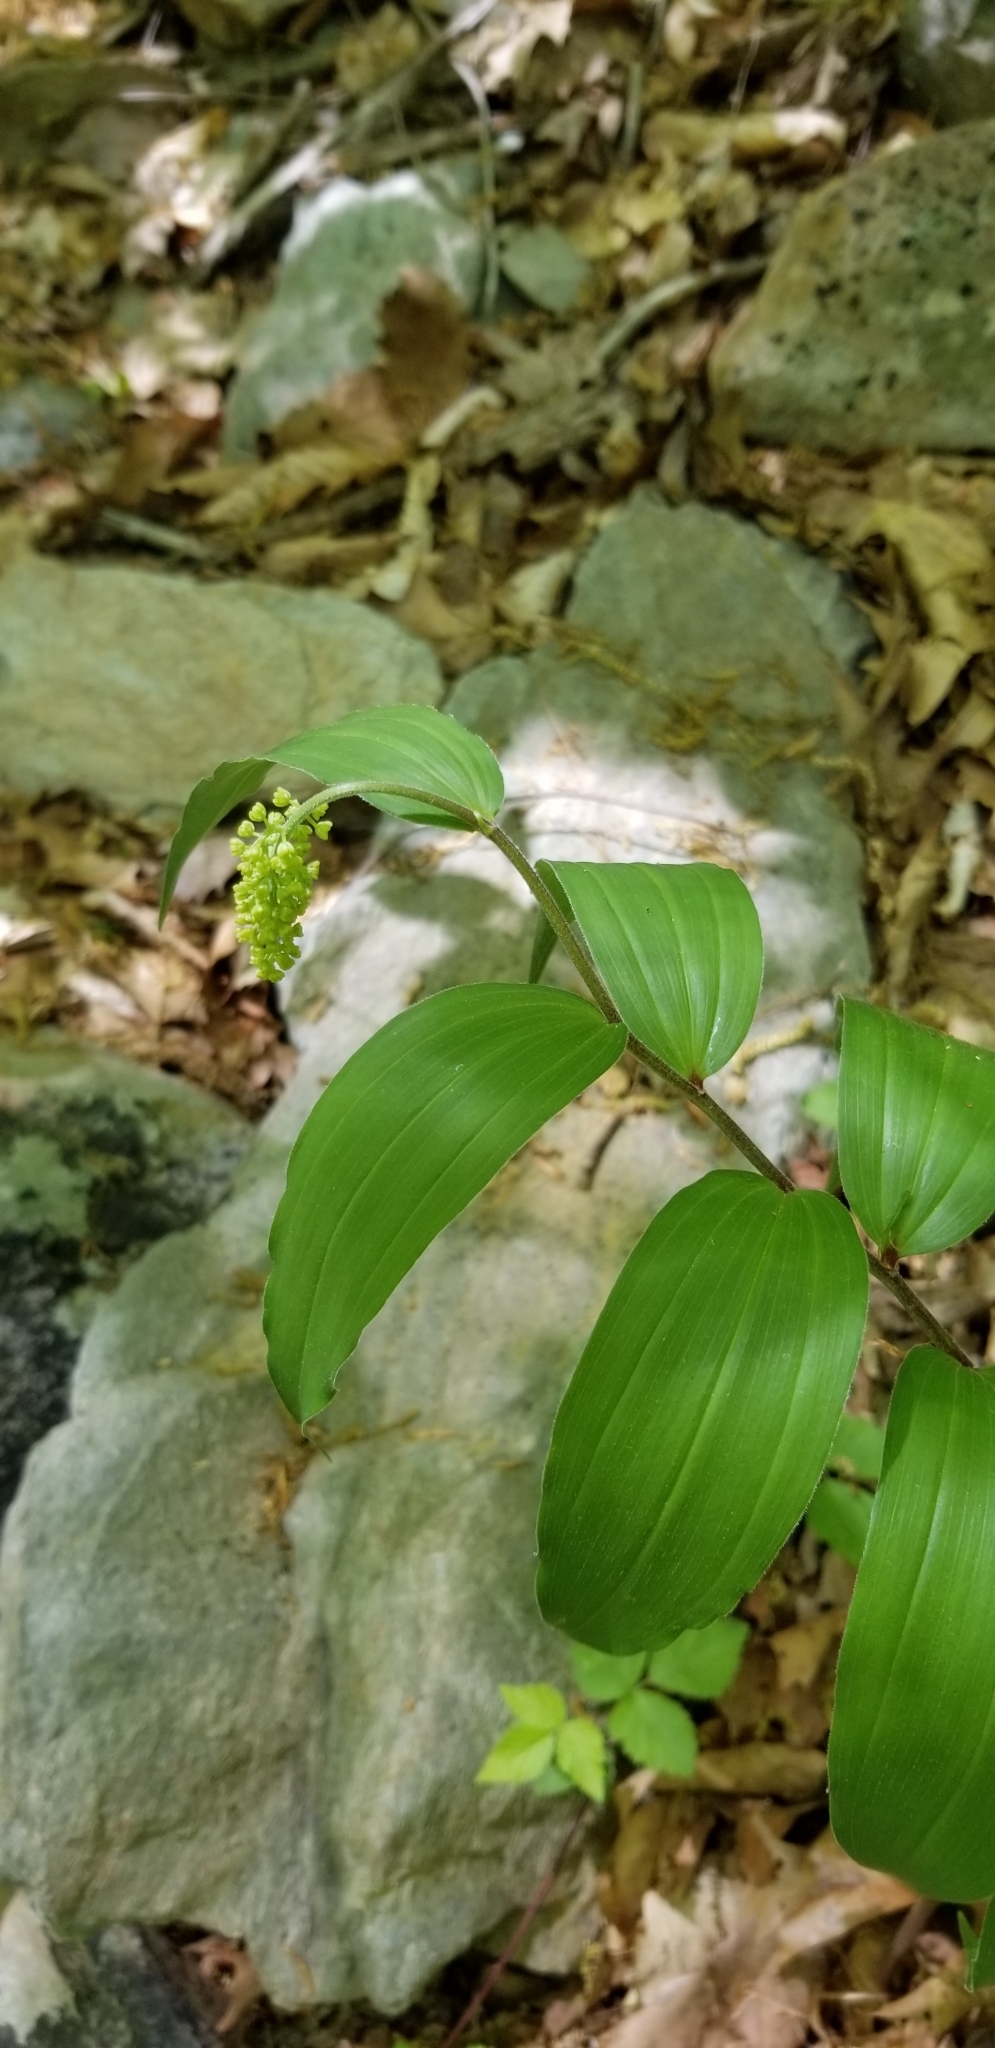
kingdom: Plantae
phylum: Tracheophyta
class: Liliopsida
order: Asparagales
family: Asparagaceae
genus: Maianthemum
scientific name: Maianthemum racemosum
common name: False spikenard
